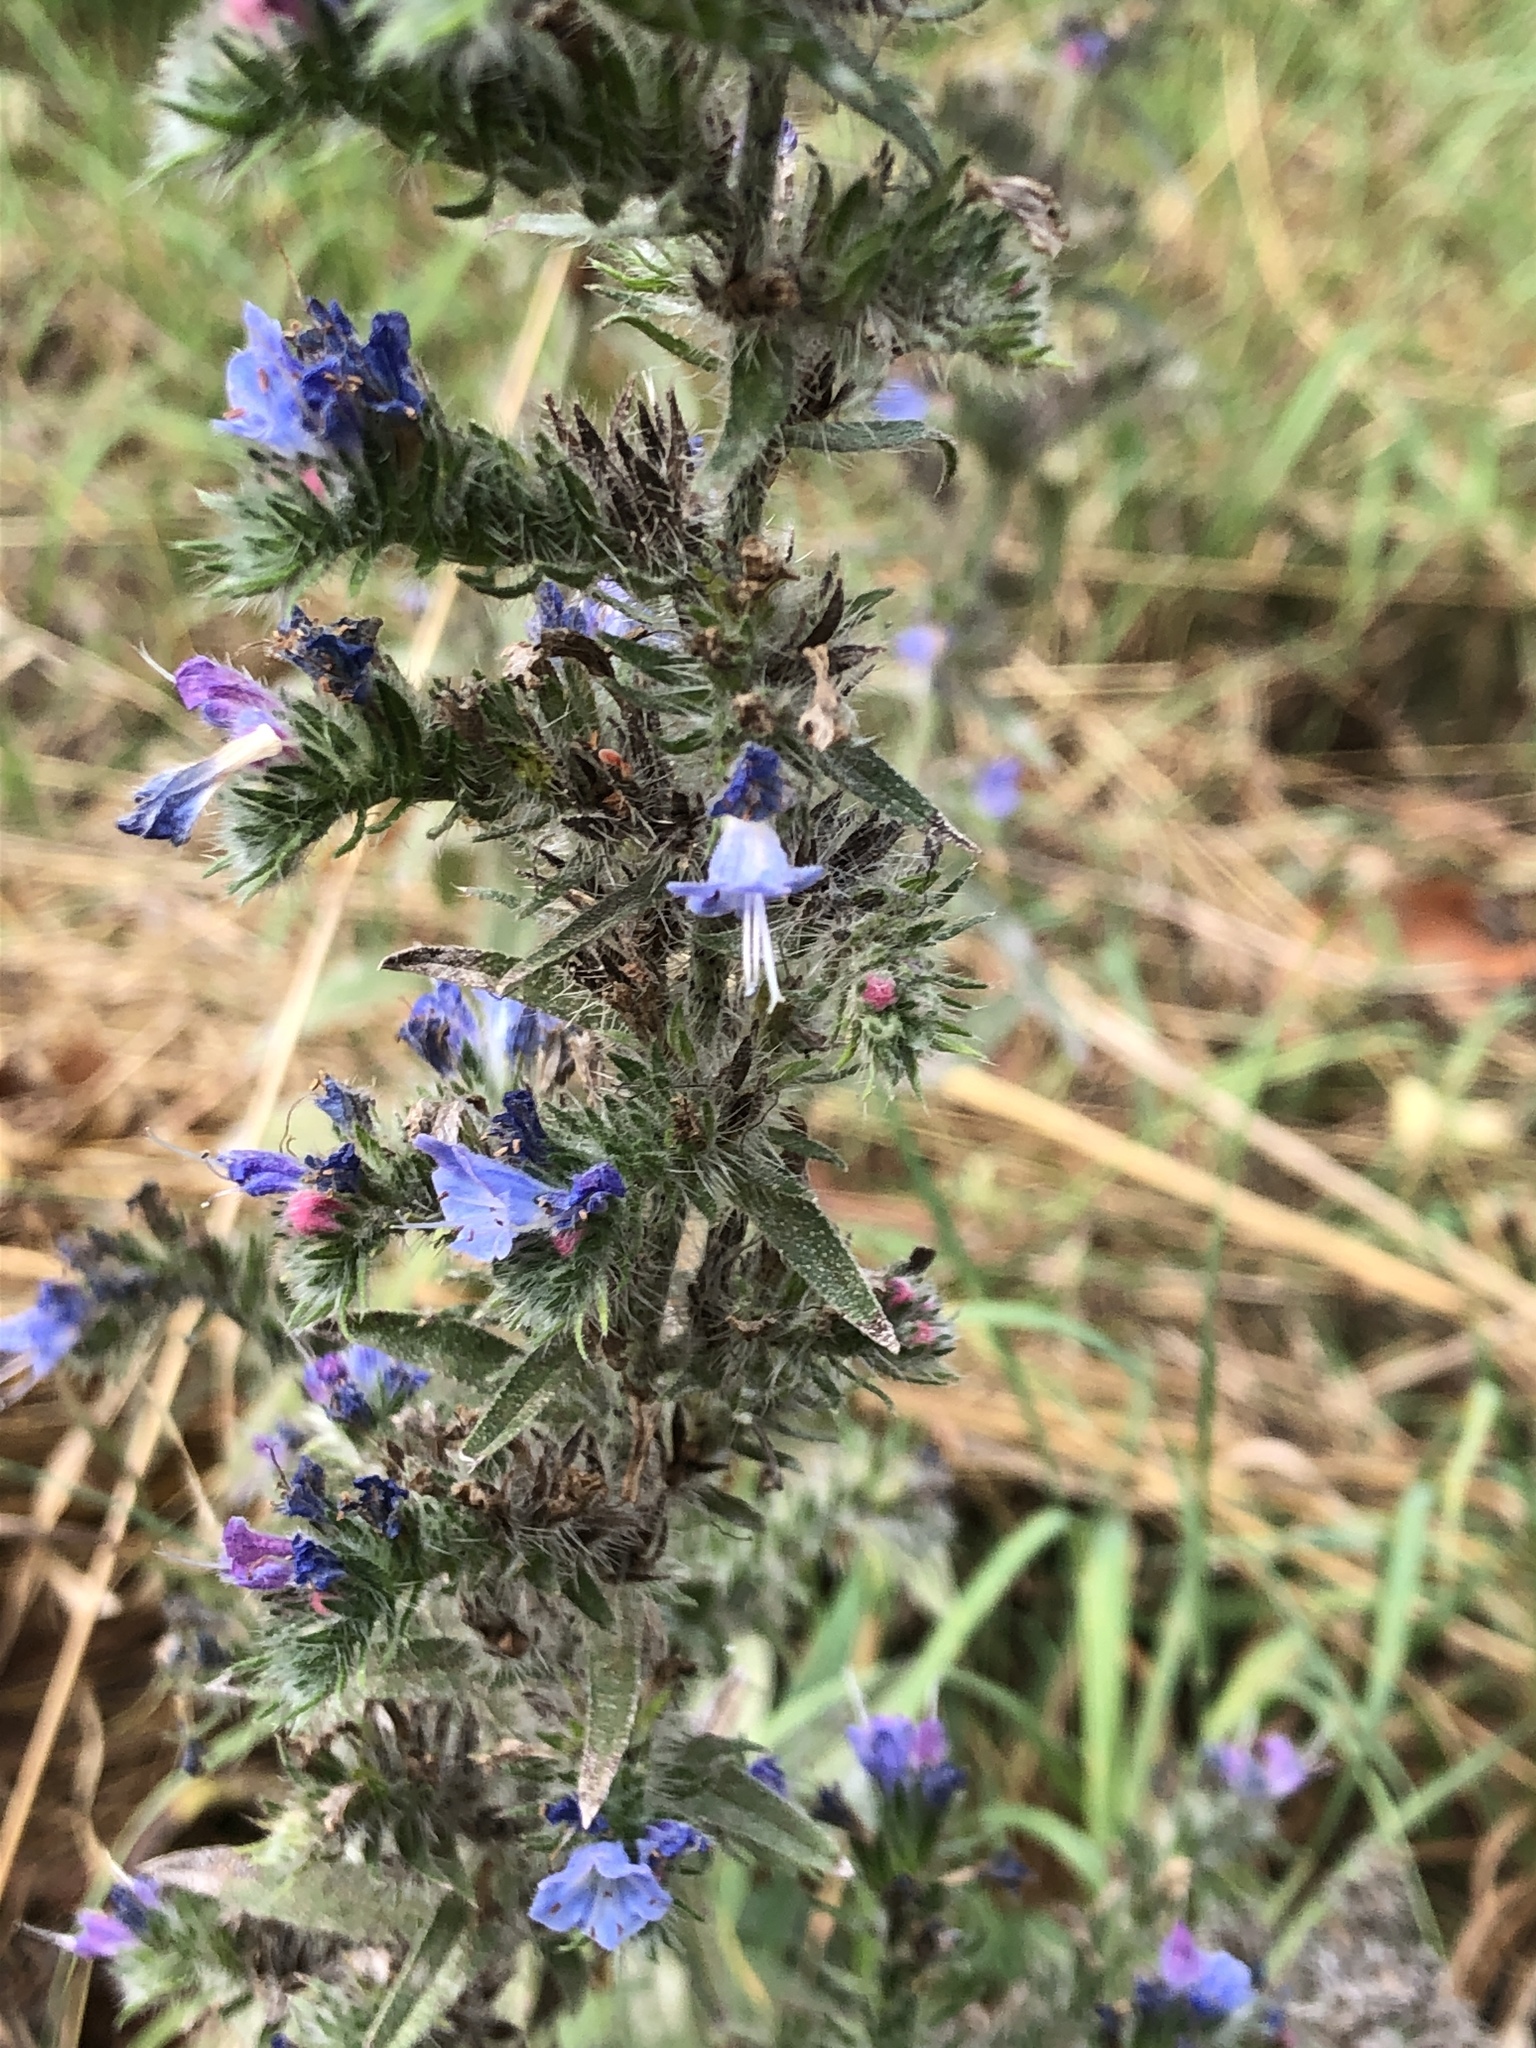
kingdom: Plantae
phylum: Tracheophyta
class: Magnoliopsida
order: Boraginales
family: Boraginaceae
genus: Echium
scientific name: Echium vulgare
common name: Common viper's bugloss
